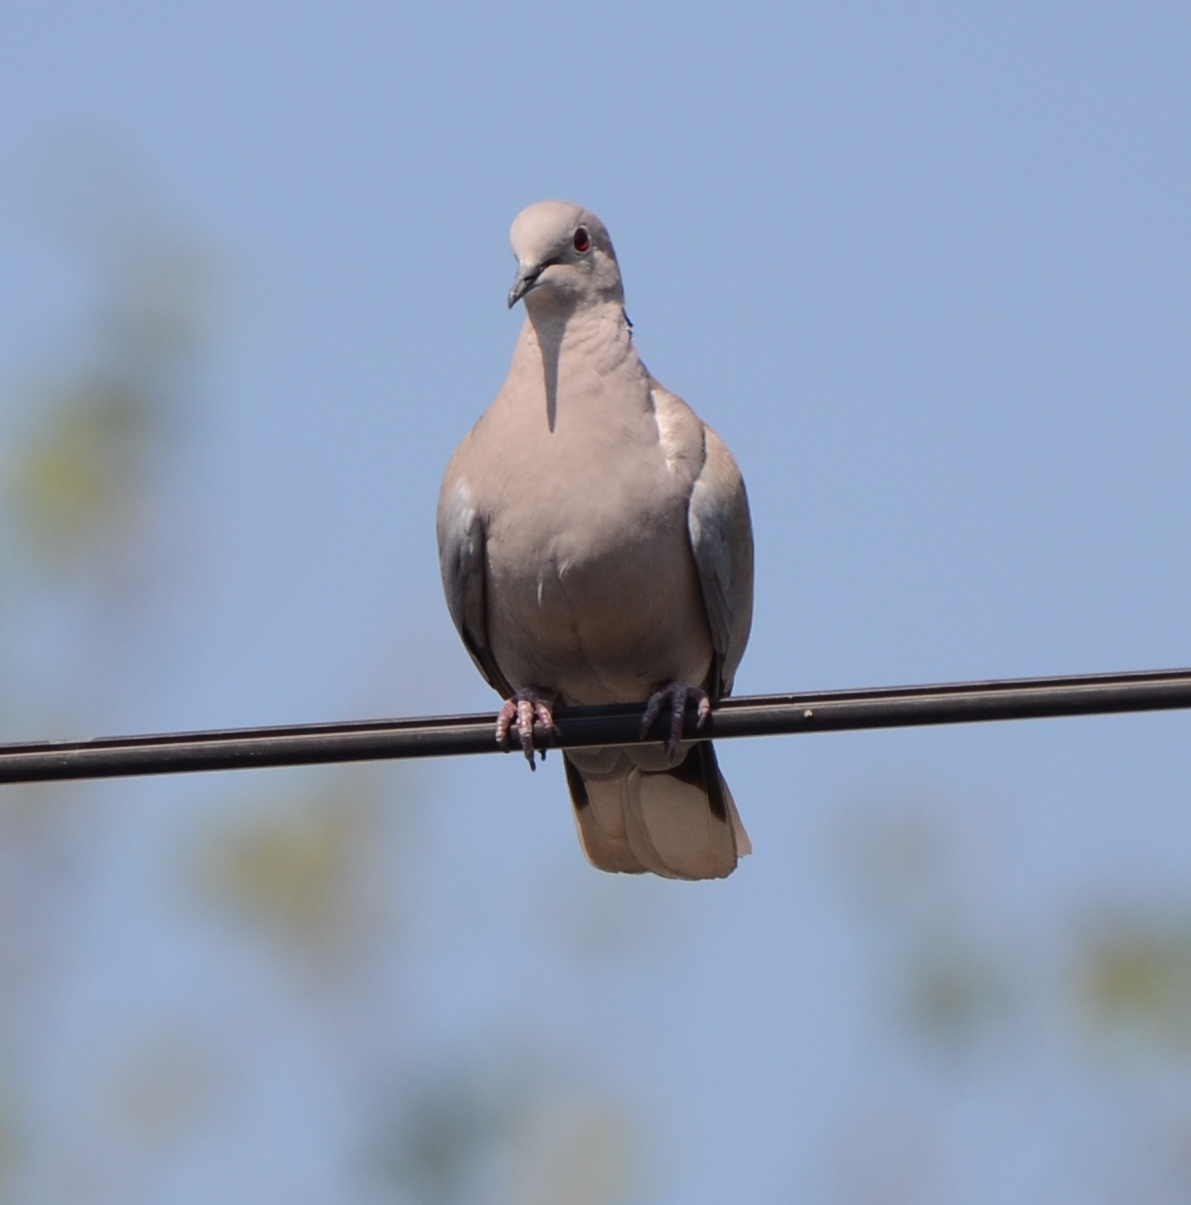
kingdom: Animalia
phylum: Chordata
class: Aves
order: Columbiformes
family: Columbidae
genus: Streptopelia
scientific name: Streptopelia decaocto
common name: Eurasian collared dove
